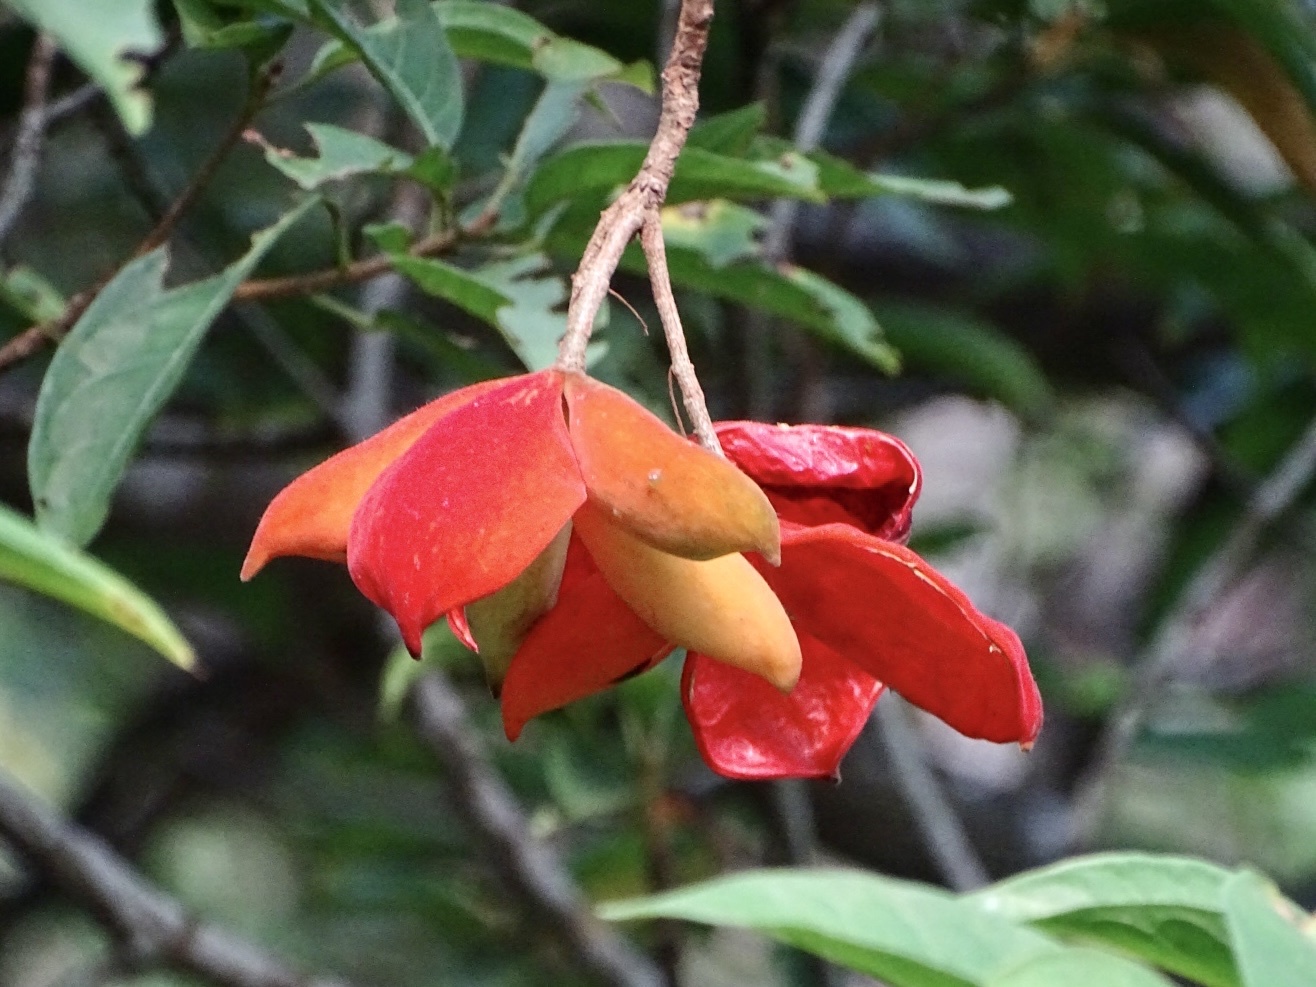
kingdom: Plantae
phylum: Tracheophyta
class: Magnoliopsida
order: Malvales
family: Malvaceae
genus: Sterculia
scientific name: Sterculia lanceolata
